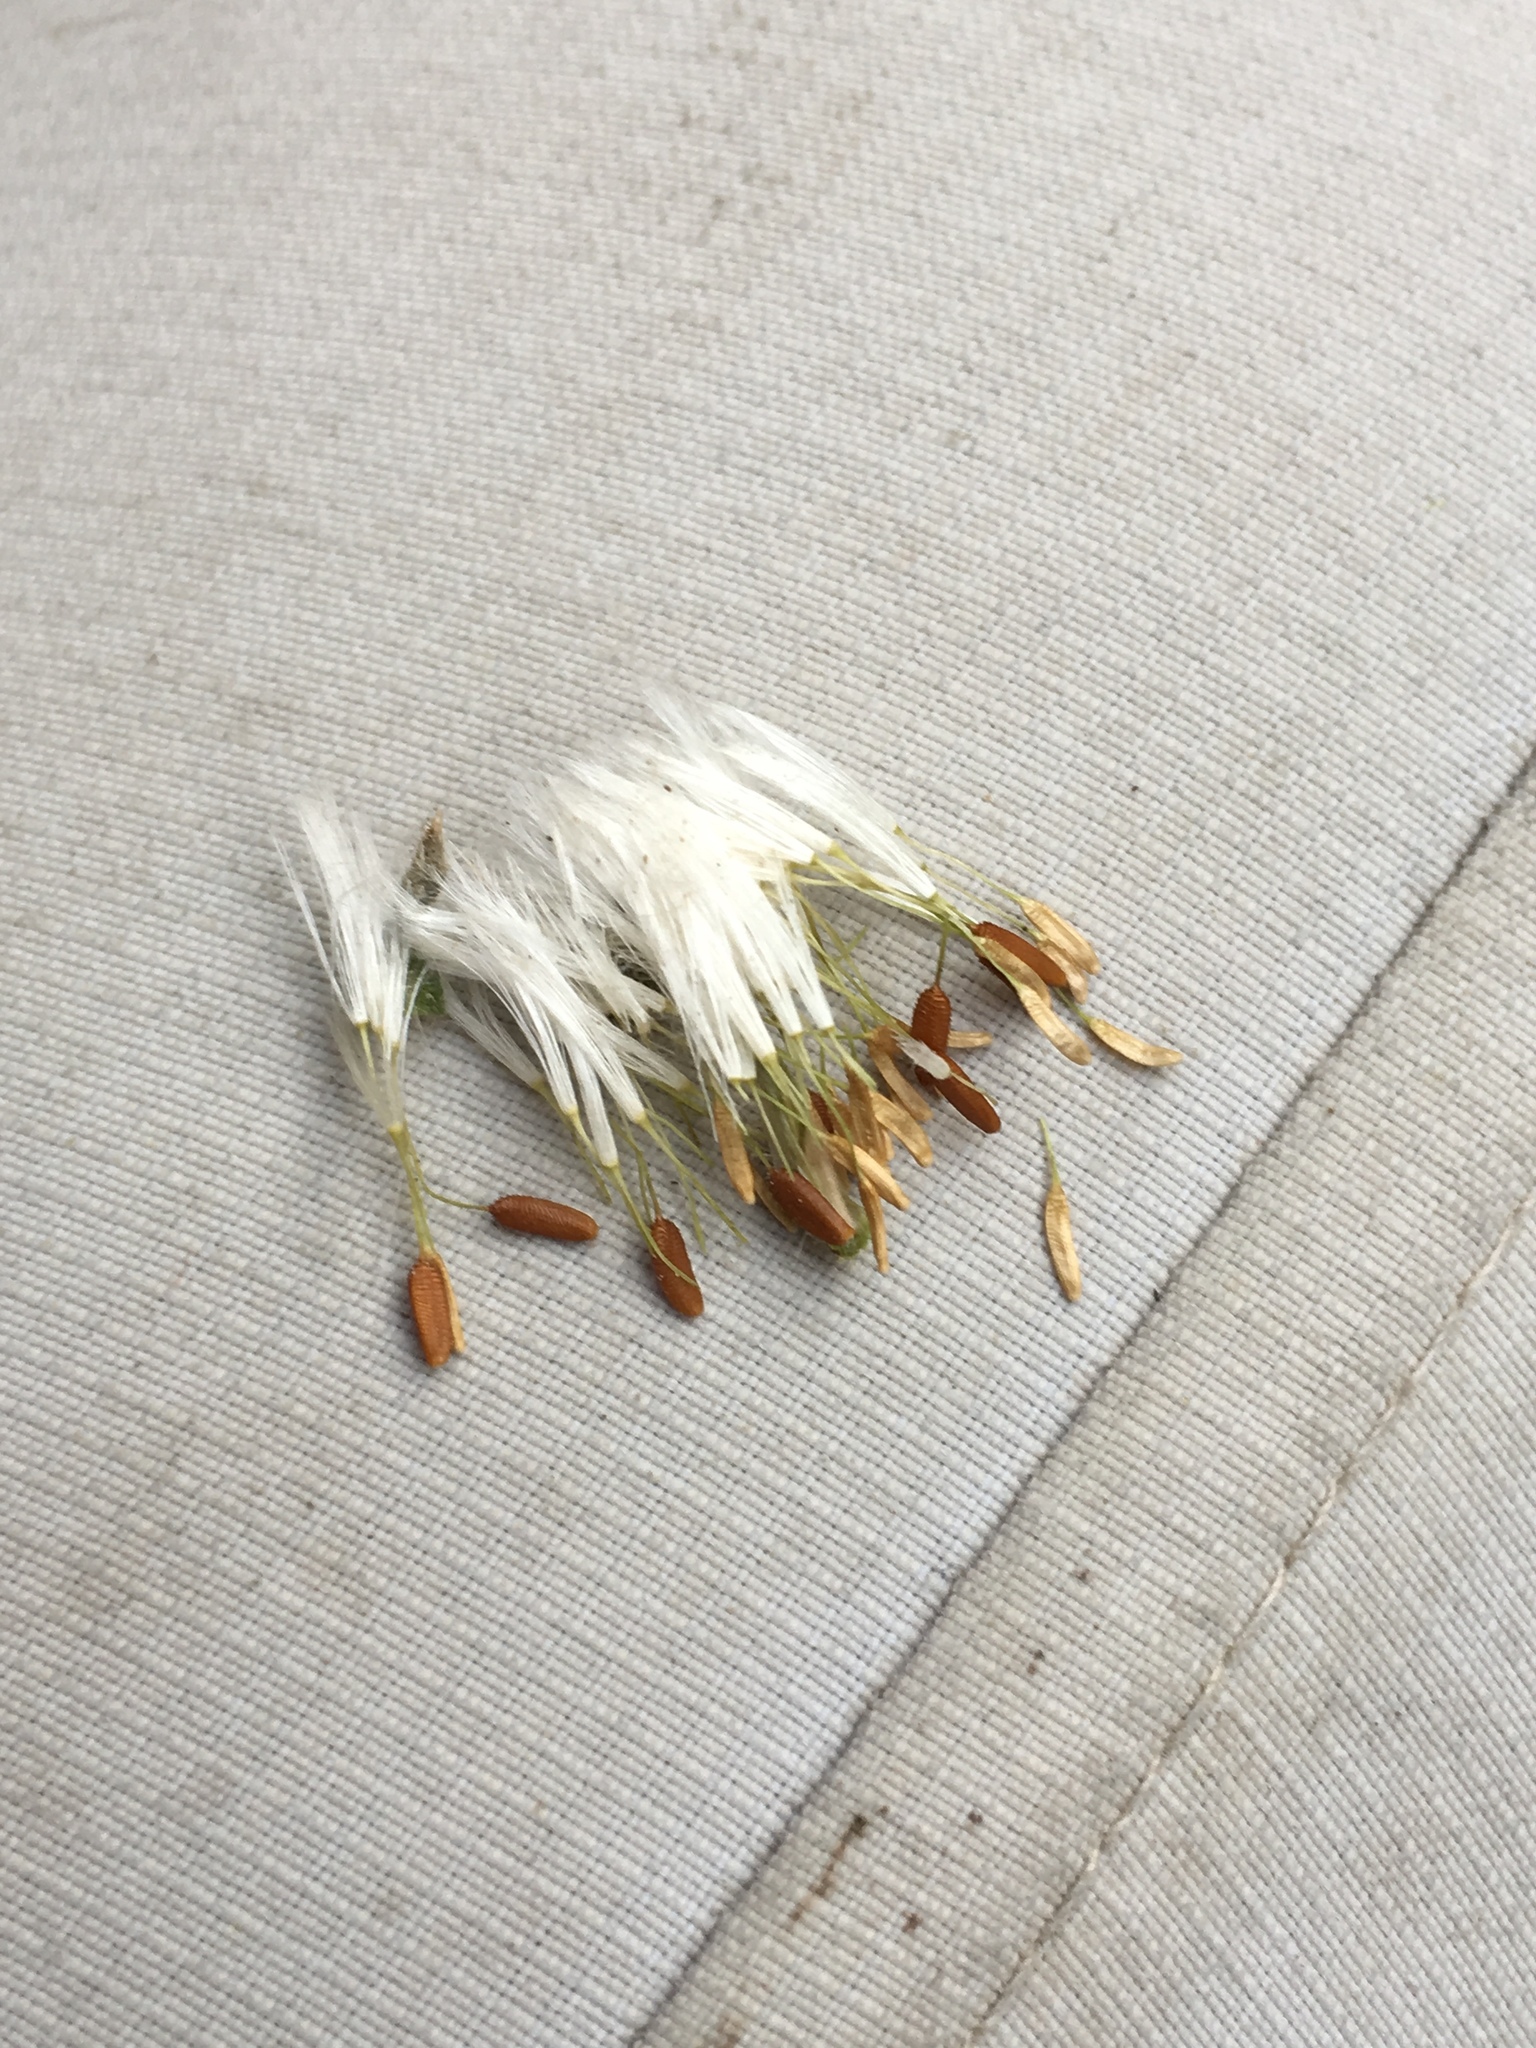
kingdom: Plantae
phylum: Tracheophyta
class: Magnoliopsida
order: Asterales
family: Asteraceae
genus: Helminthotheca
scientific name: Helminthotheca echioides
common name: Ox-tongue
